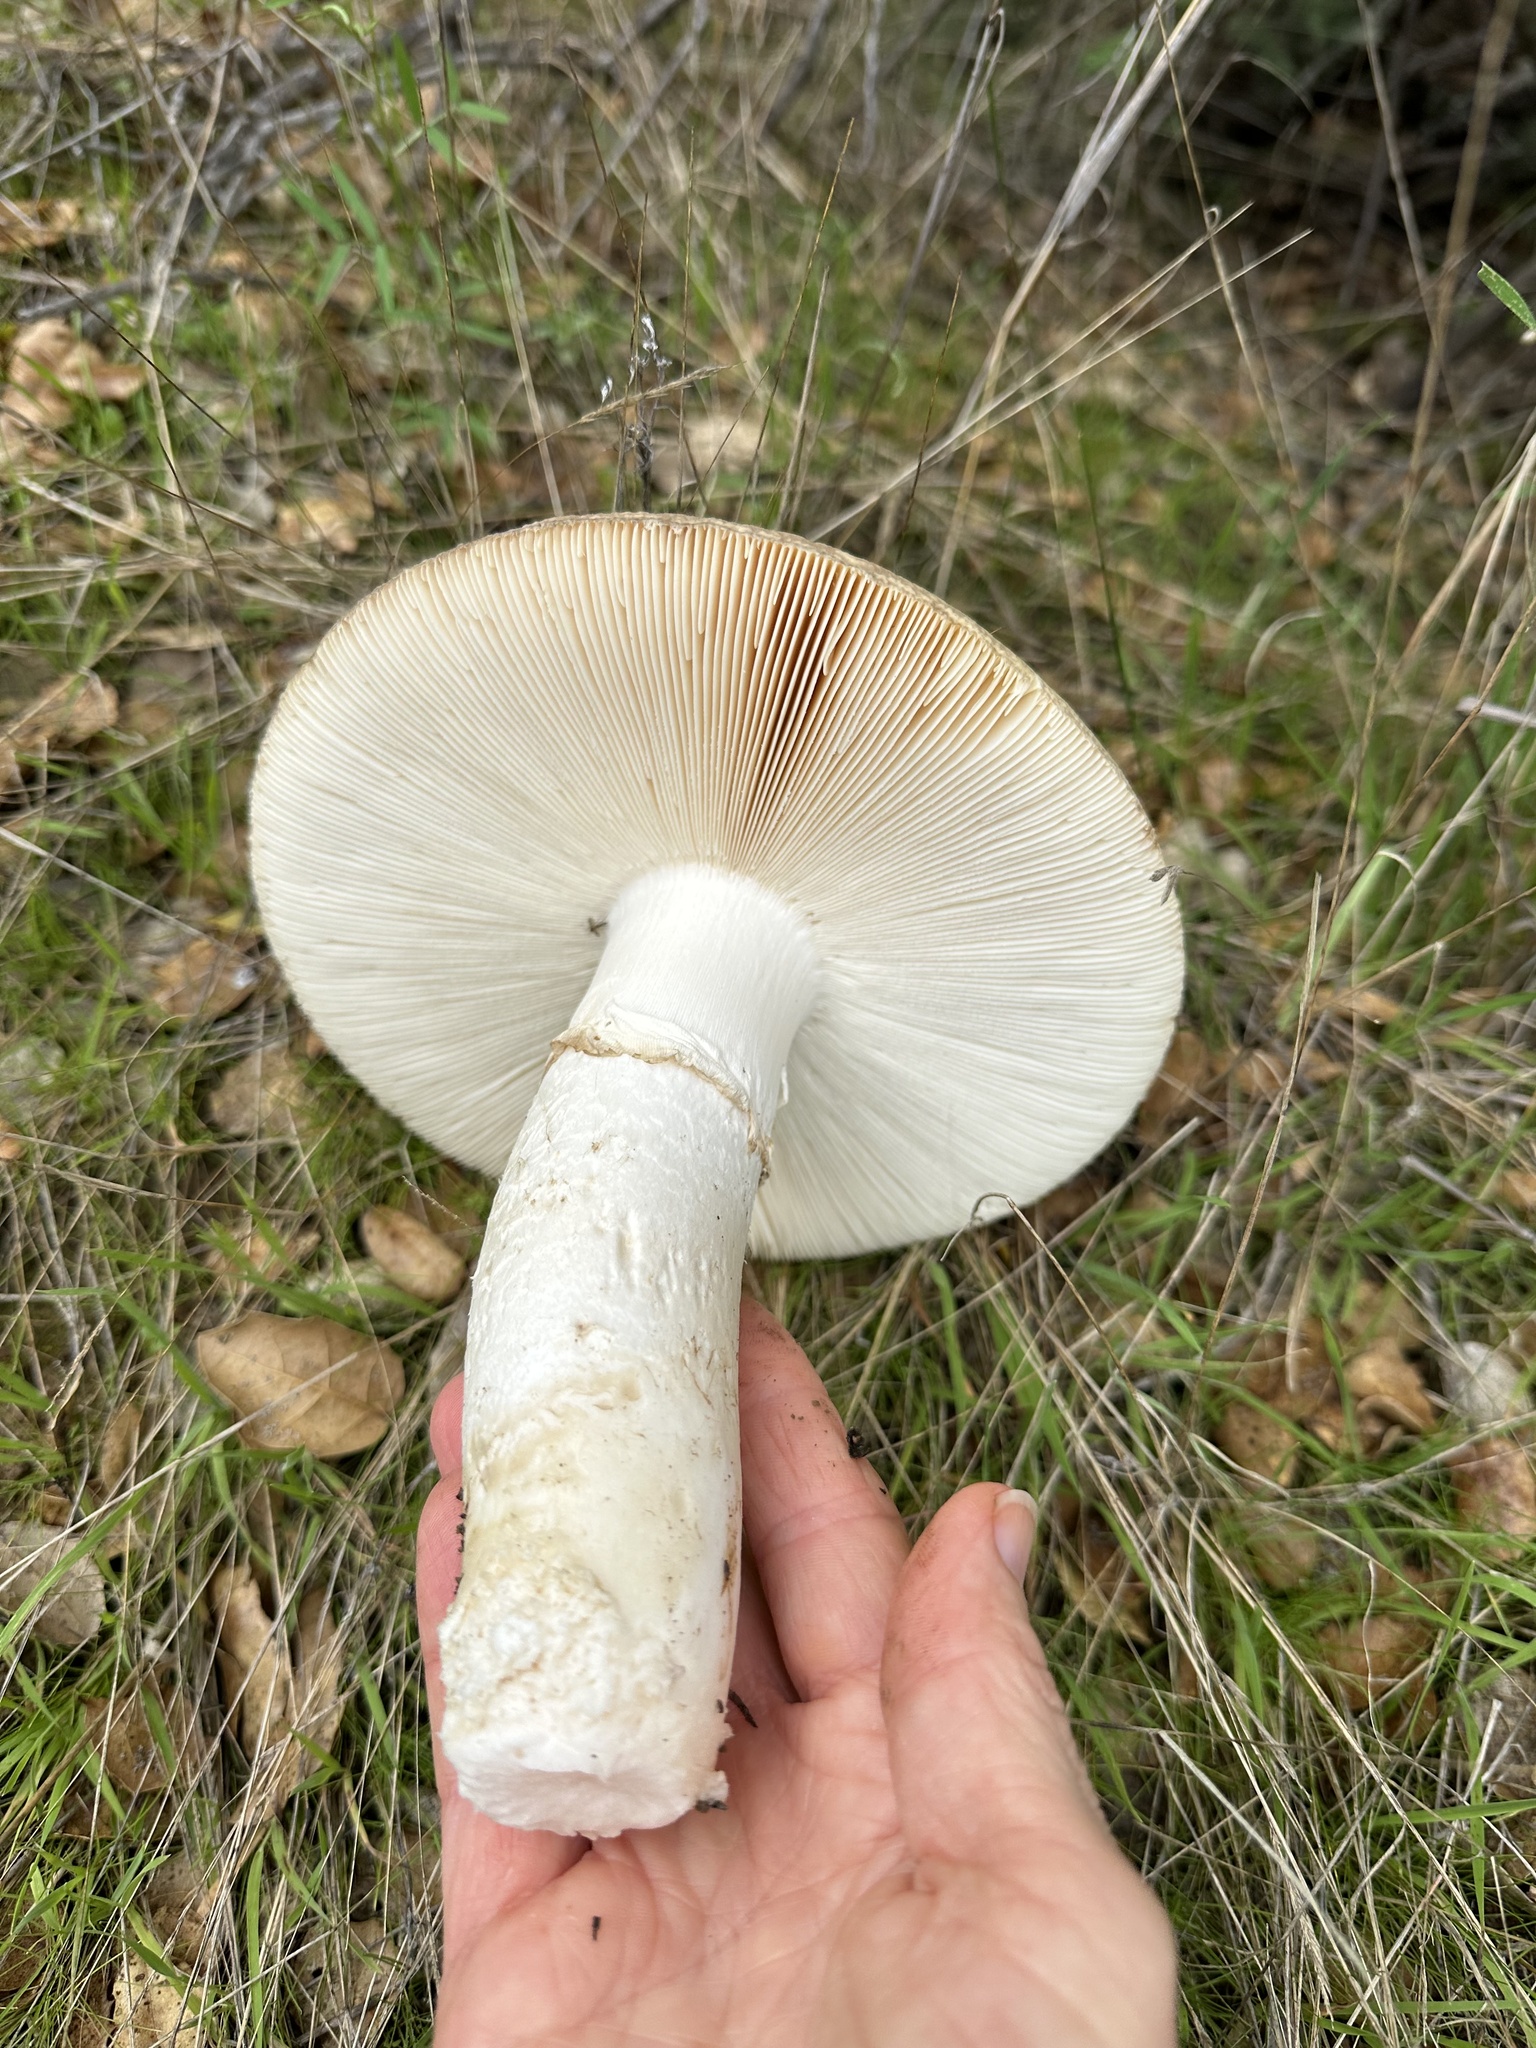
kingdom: Fungi
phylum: Basidiomycota
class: Agaricomycetes
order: Agaricales
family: Amanitaceae
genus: Amanita
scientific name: Amanita vernicoccora
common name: Spring coccora
